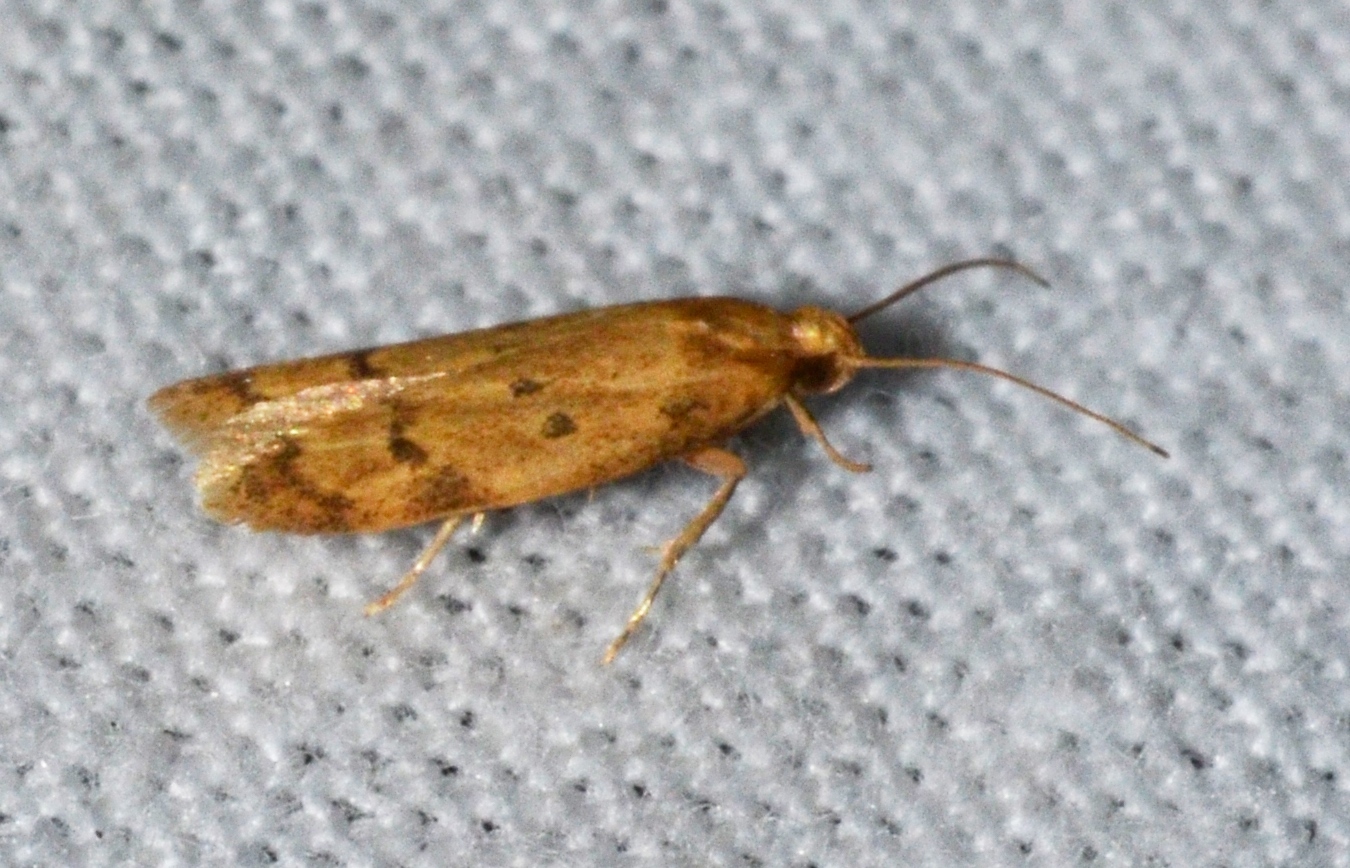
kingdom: Animalia
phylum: Arthropoda
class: Insecta
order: Lepidoptera
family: Autostichidae
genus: Gerdana
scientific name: Gerdana caritella
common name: Gerdana moth
